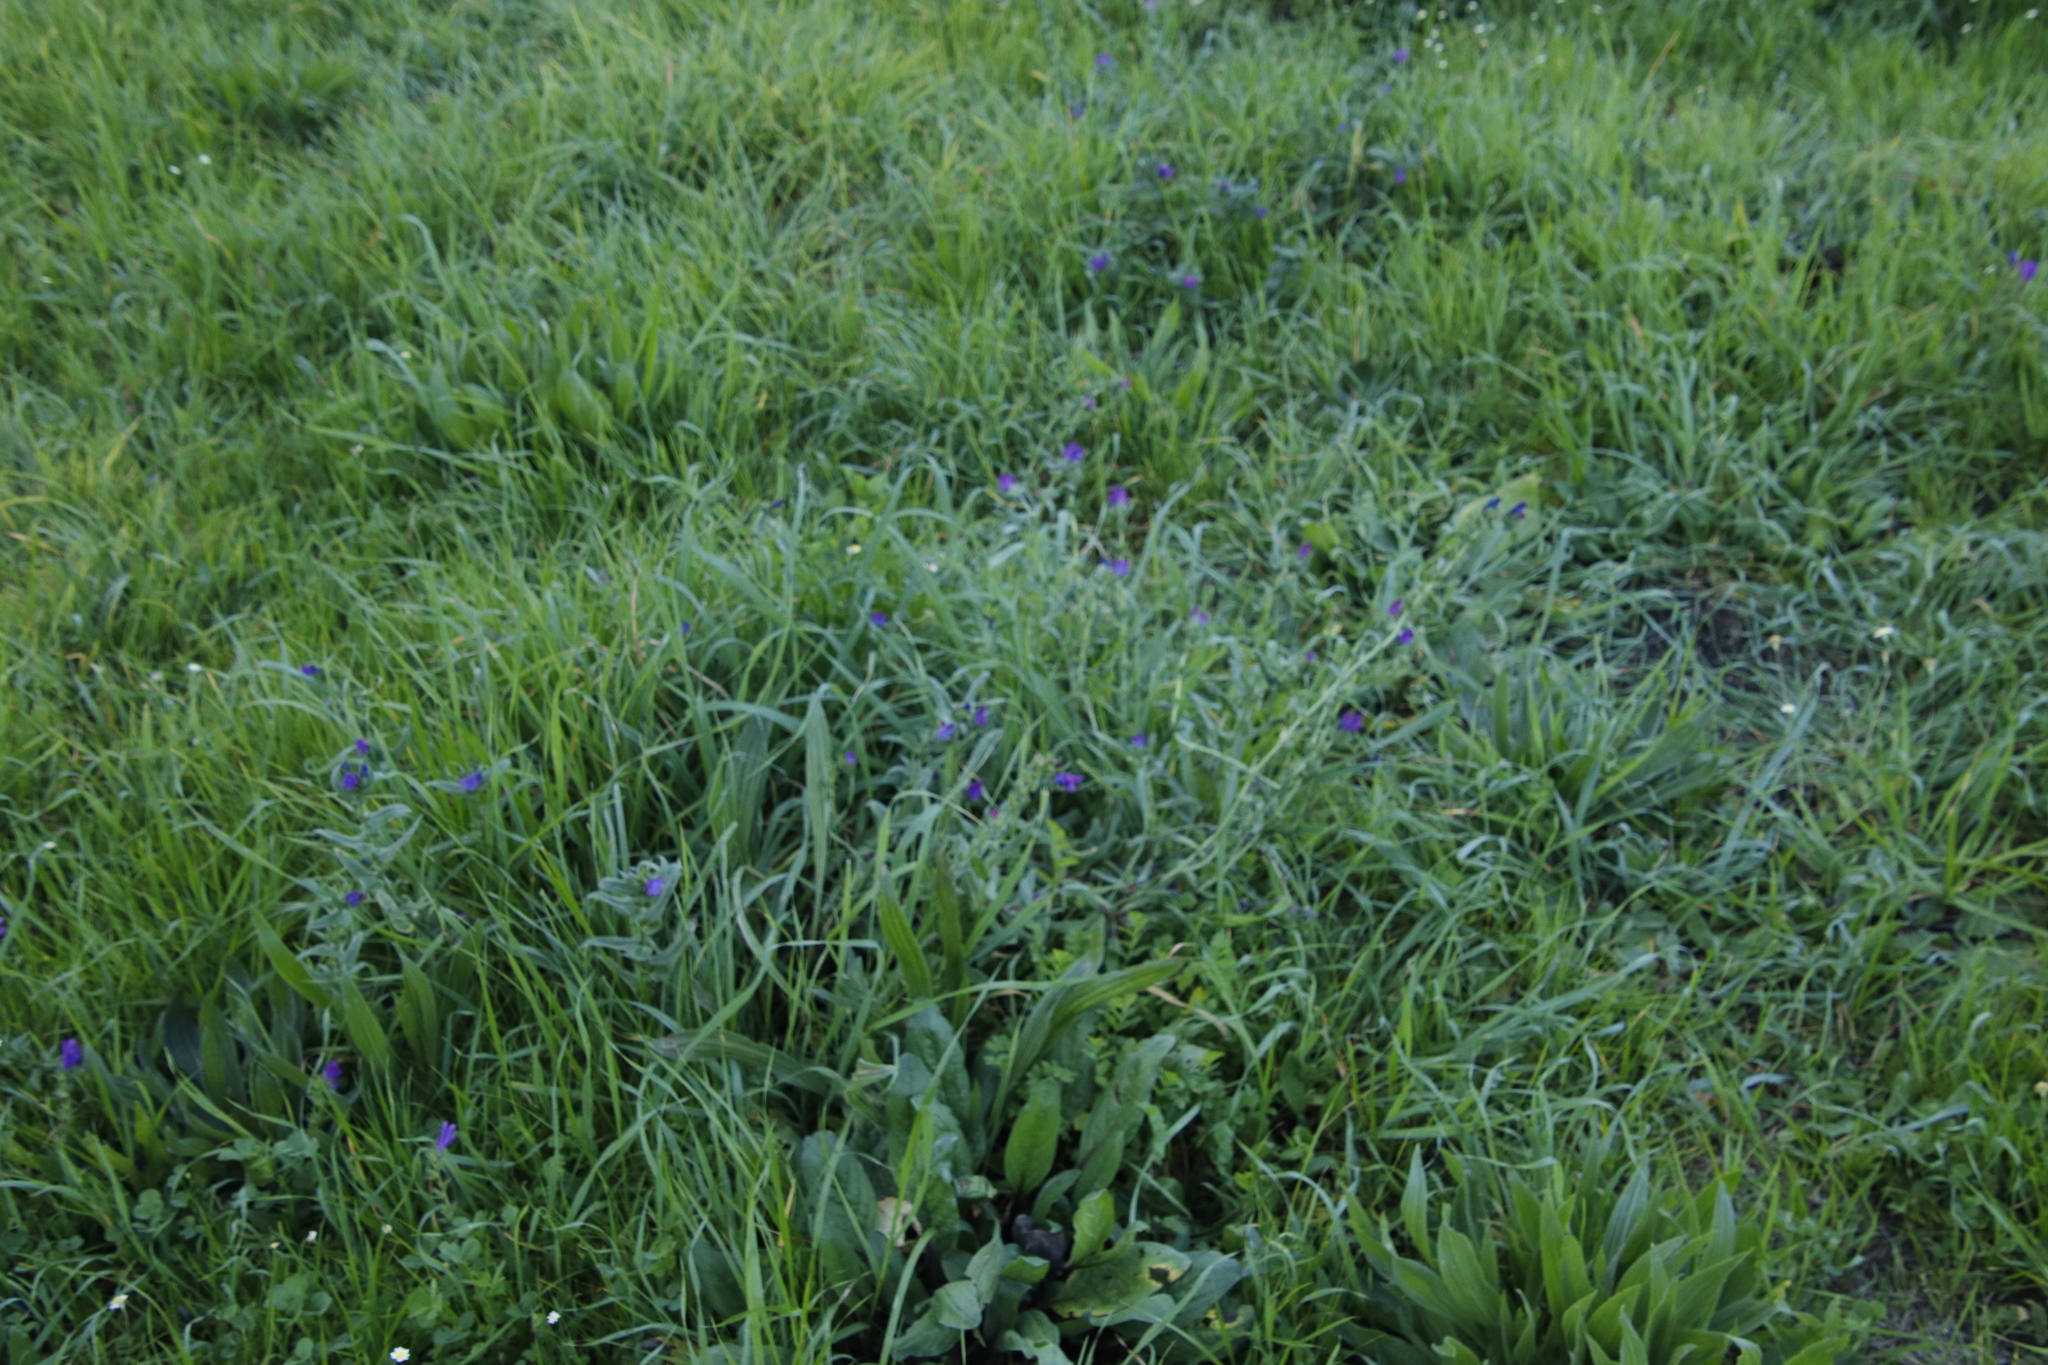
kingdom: Plantae
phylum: Tracheophyta
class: Magnoliopsida
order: Boraginales
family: Boraginaceae
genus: Echium
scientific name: Echium plantagineum
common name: Purple viper's-bugloss
